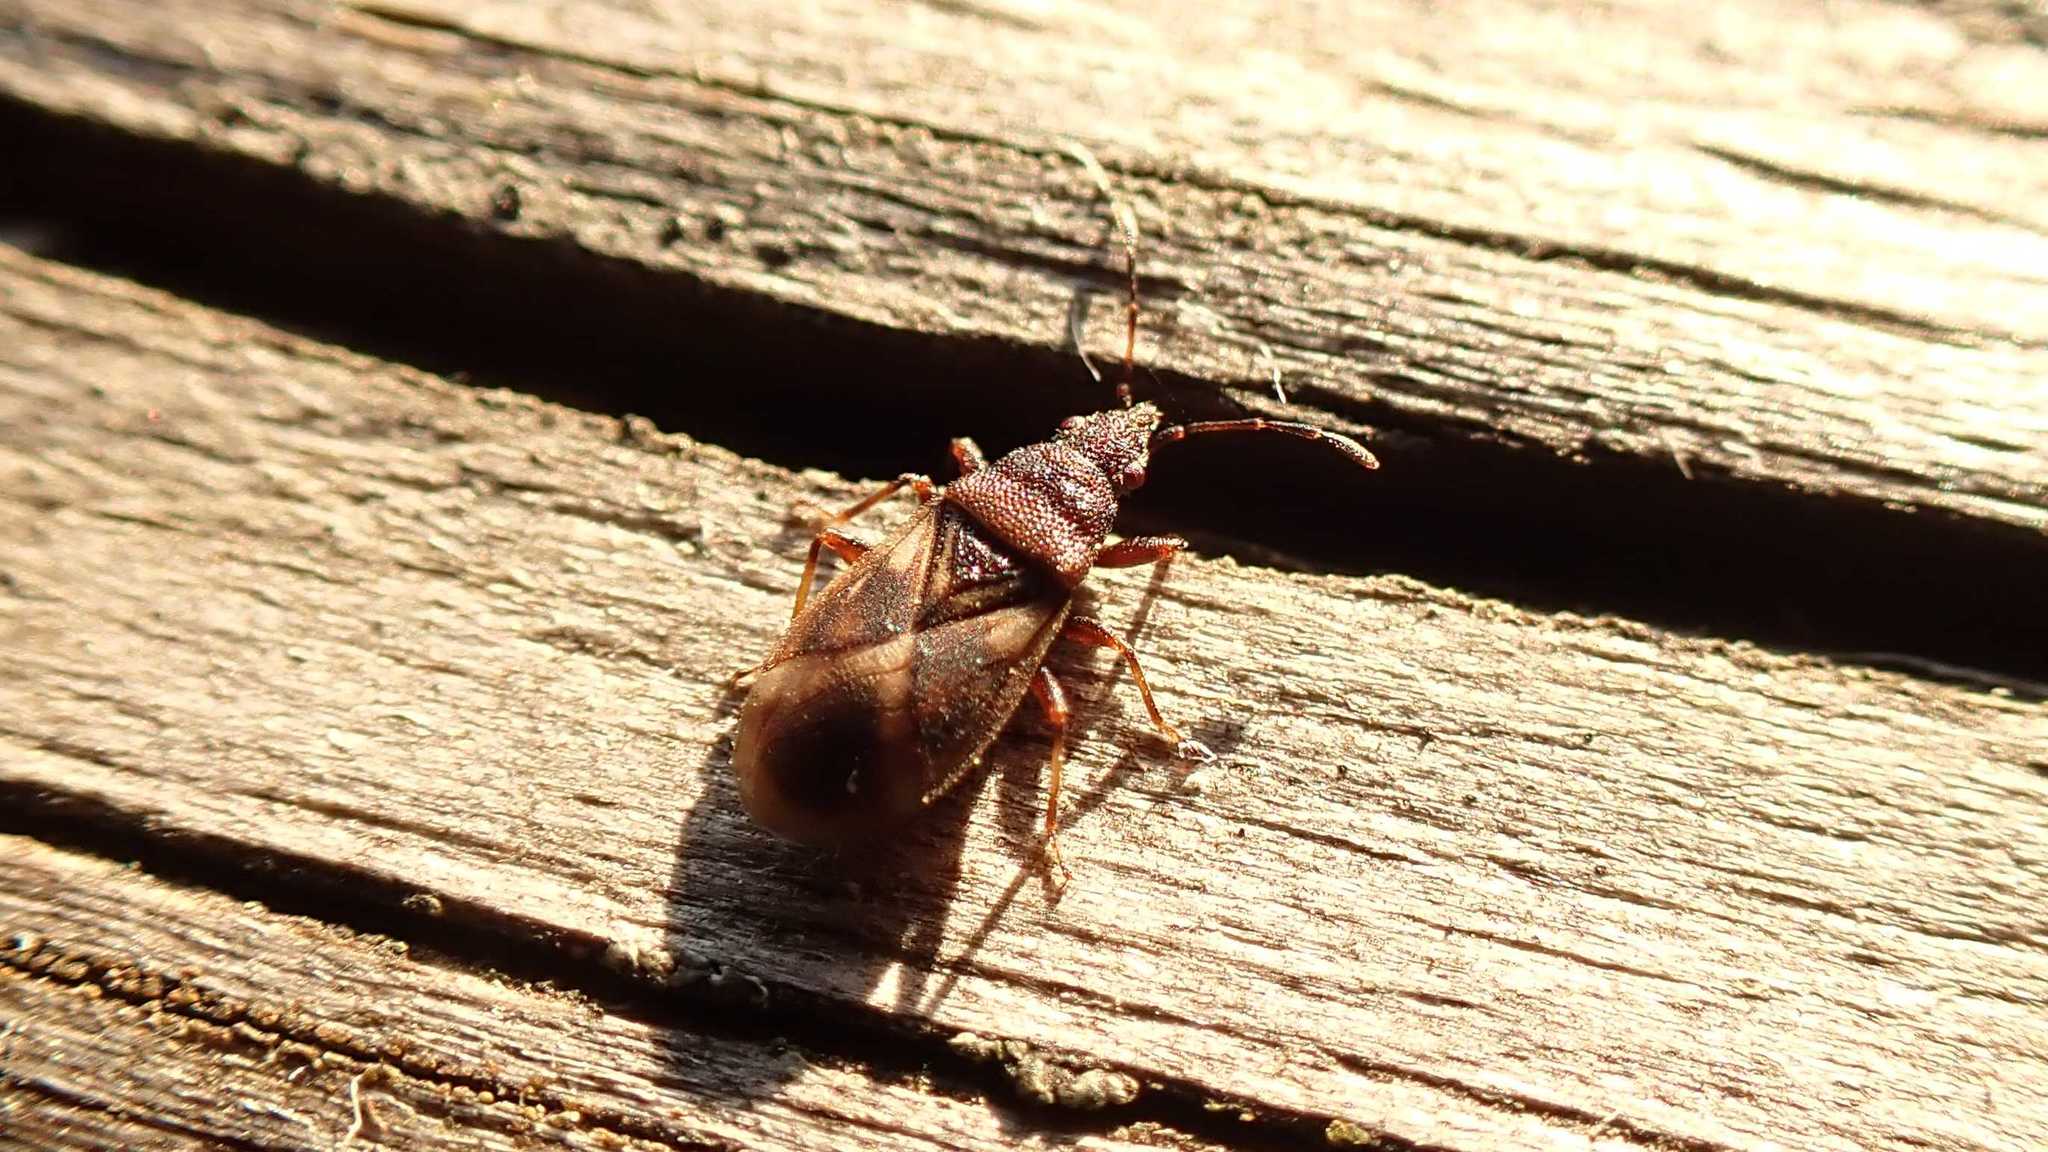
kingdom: Animalia
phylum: Arthropoda
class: Insecta
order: Hemiptera
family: Oxycarenidae
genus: Oxycarenus
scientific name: Oxycarenus modestus
